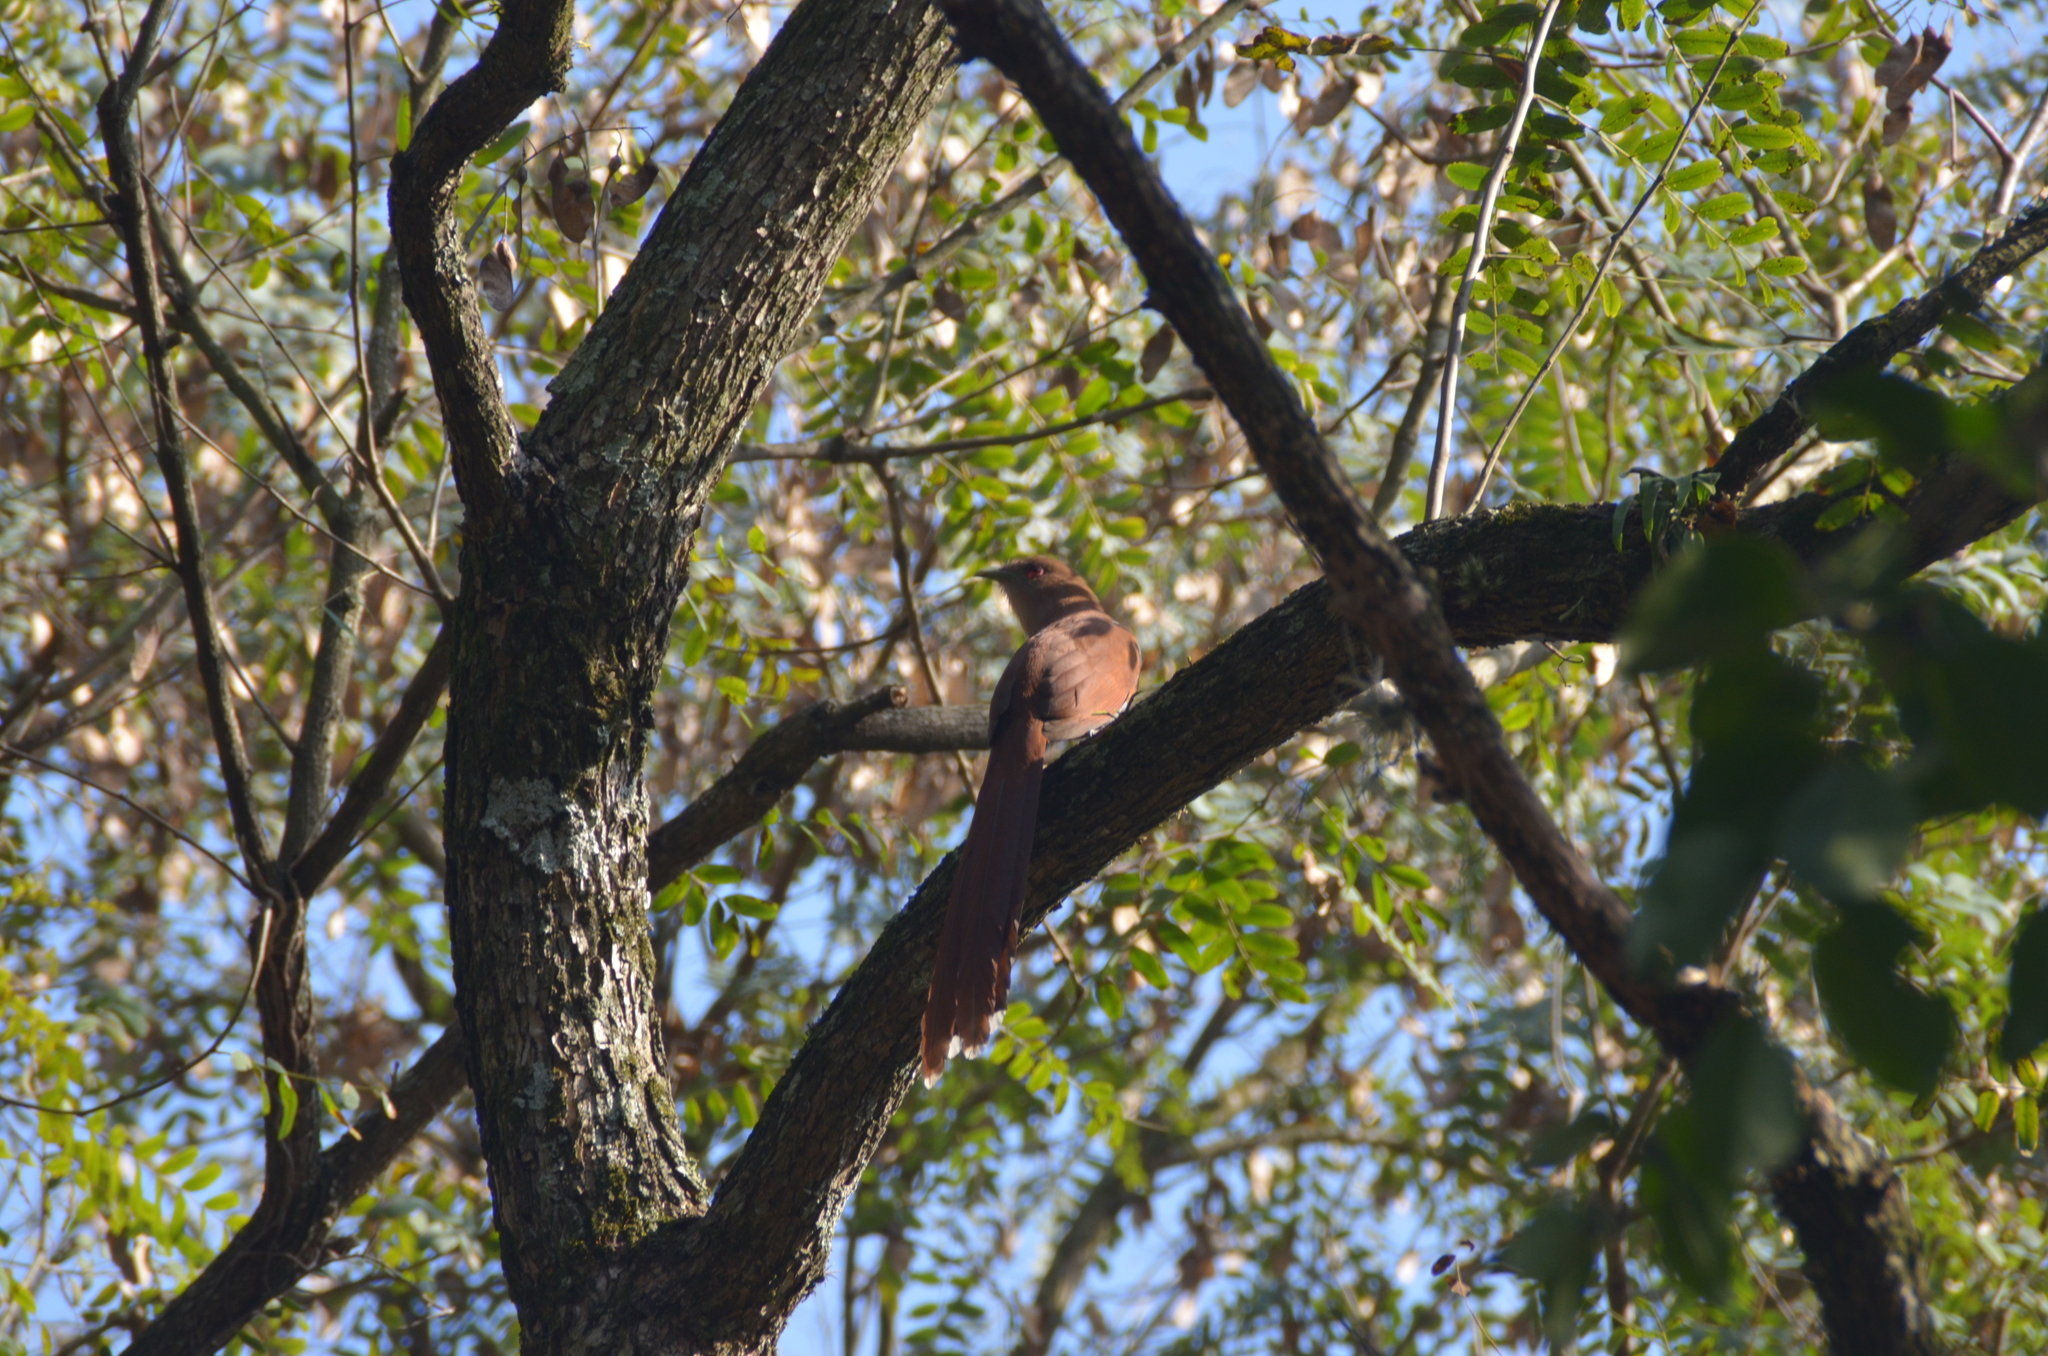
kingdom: Animalia
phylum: Chordata
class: Aves
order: Cuculiformes
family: Cuculidae
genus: Piaya
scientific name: Piaya cayana
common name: Squirrel cuckoo
